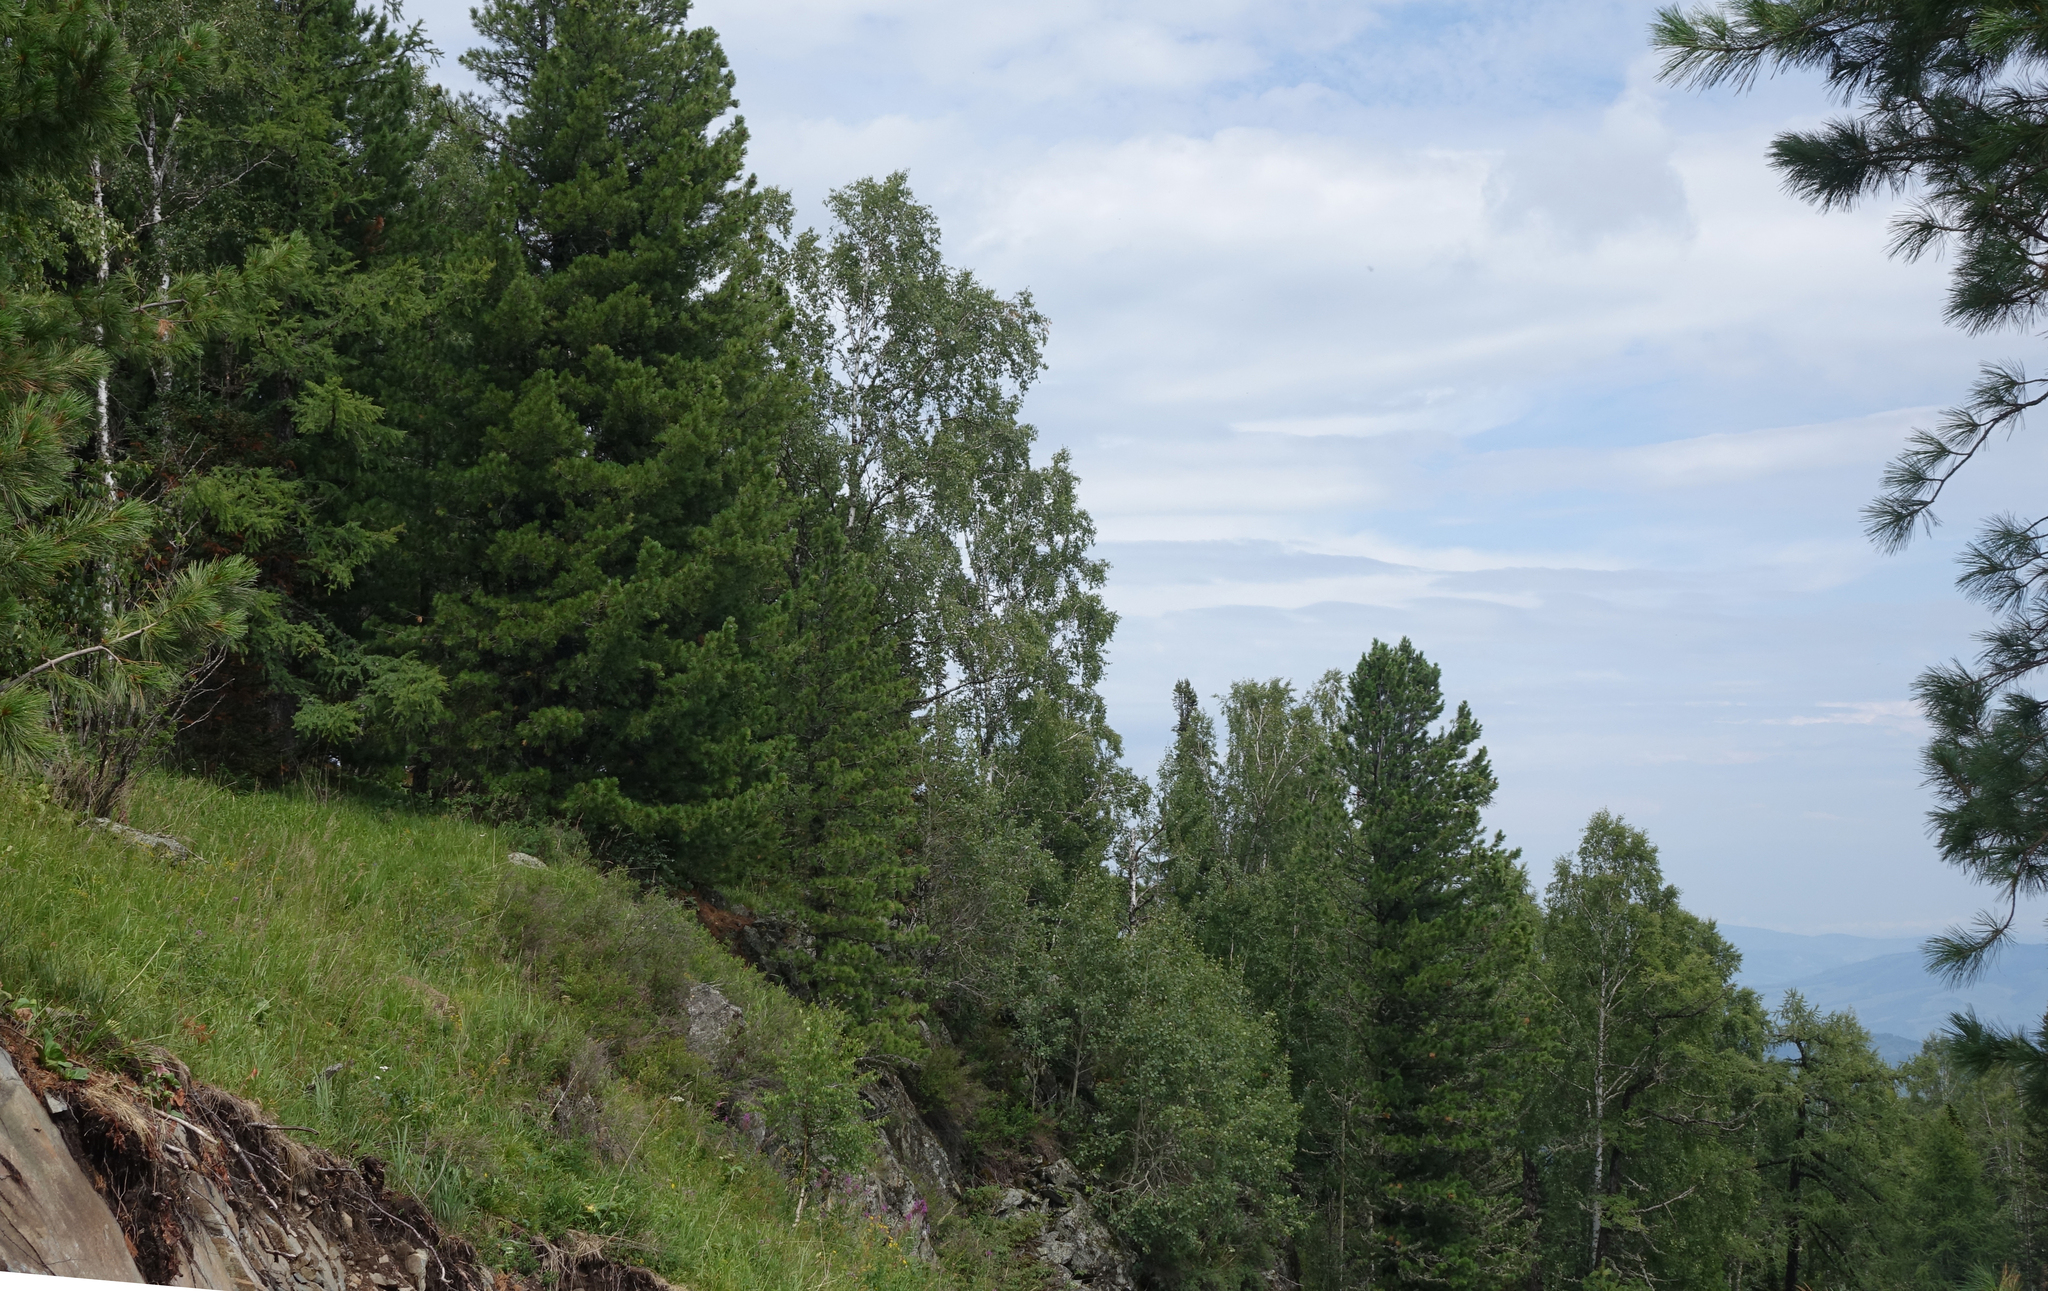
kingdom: Plantae
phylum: Tracheophyta
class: Pinopsida
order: Pinales
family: Pinaceae
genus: Pinus
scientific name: Pinus sibirica
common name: Siberian pine
